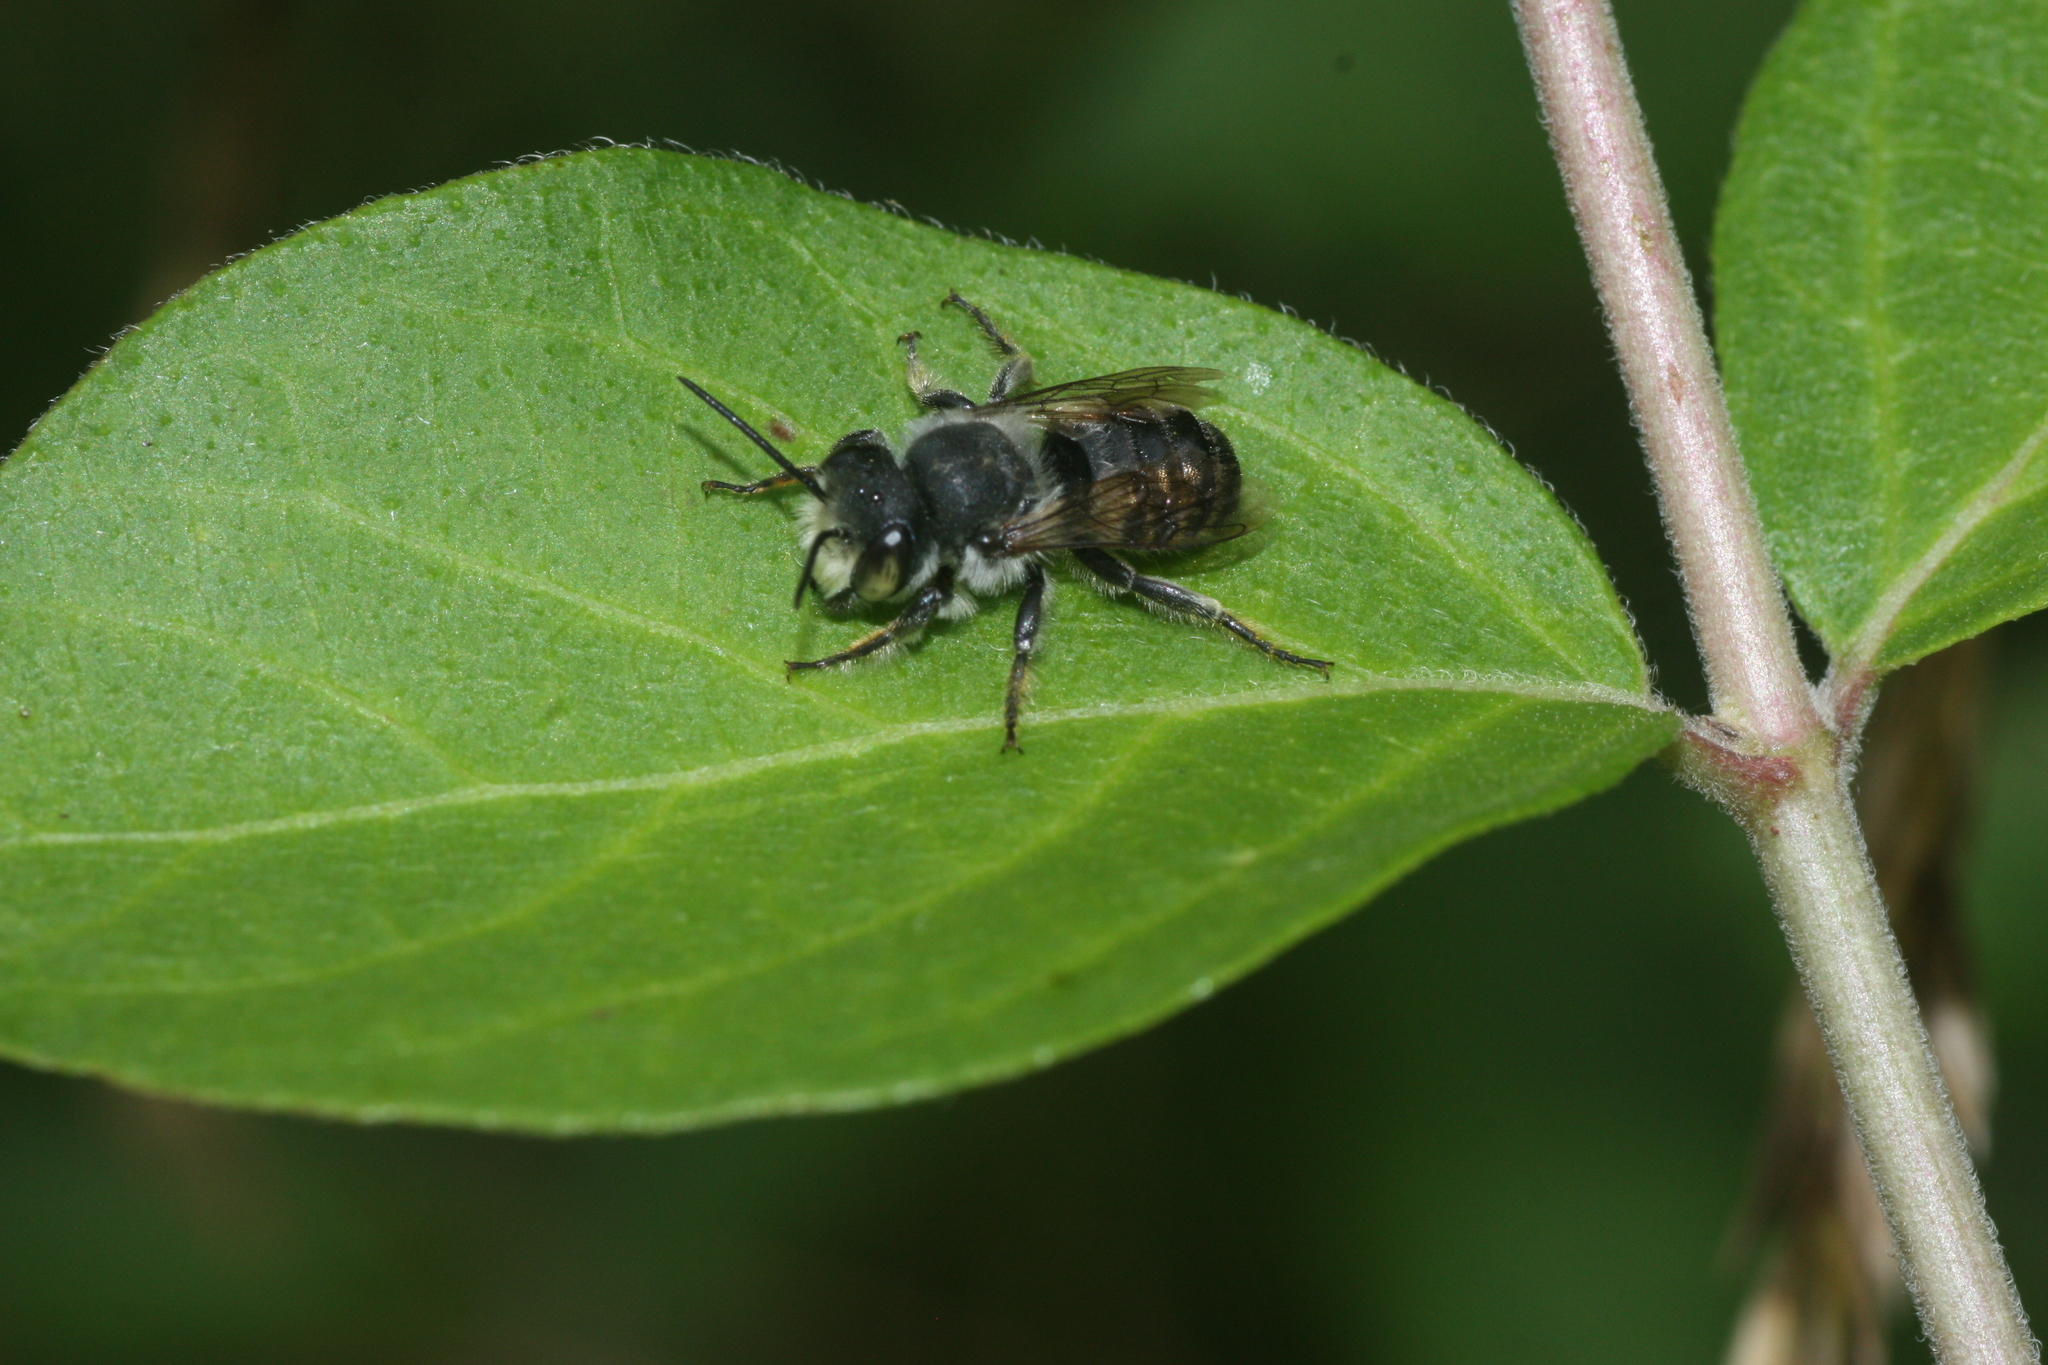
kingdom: Animalia
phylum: Arthropoda
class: Insecta
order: Hymenoptera
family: Megachilidae
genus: Megachile
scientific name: Megachile
